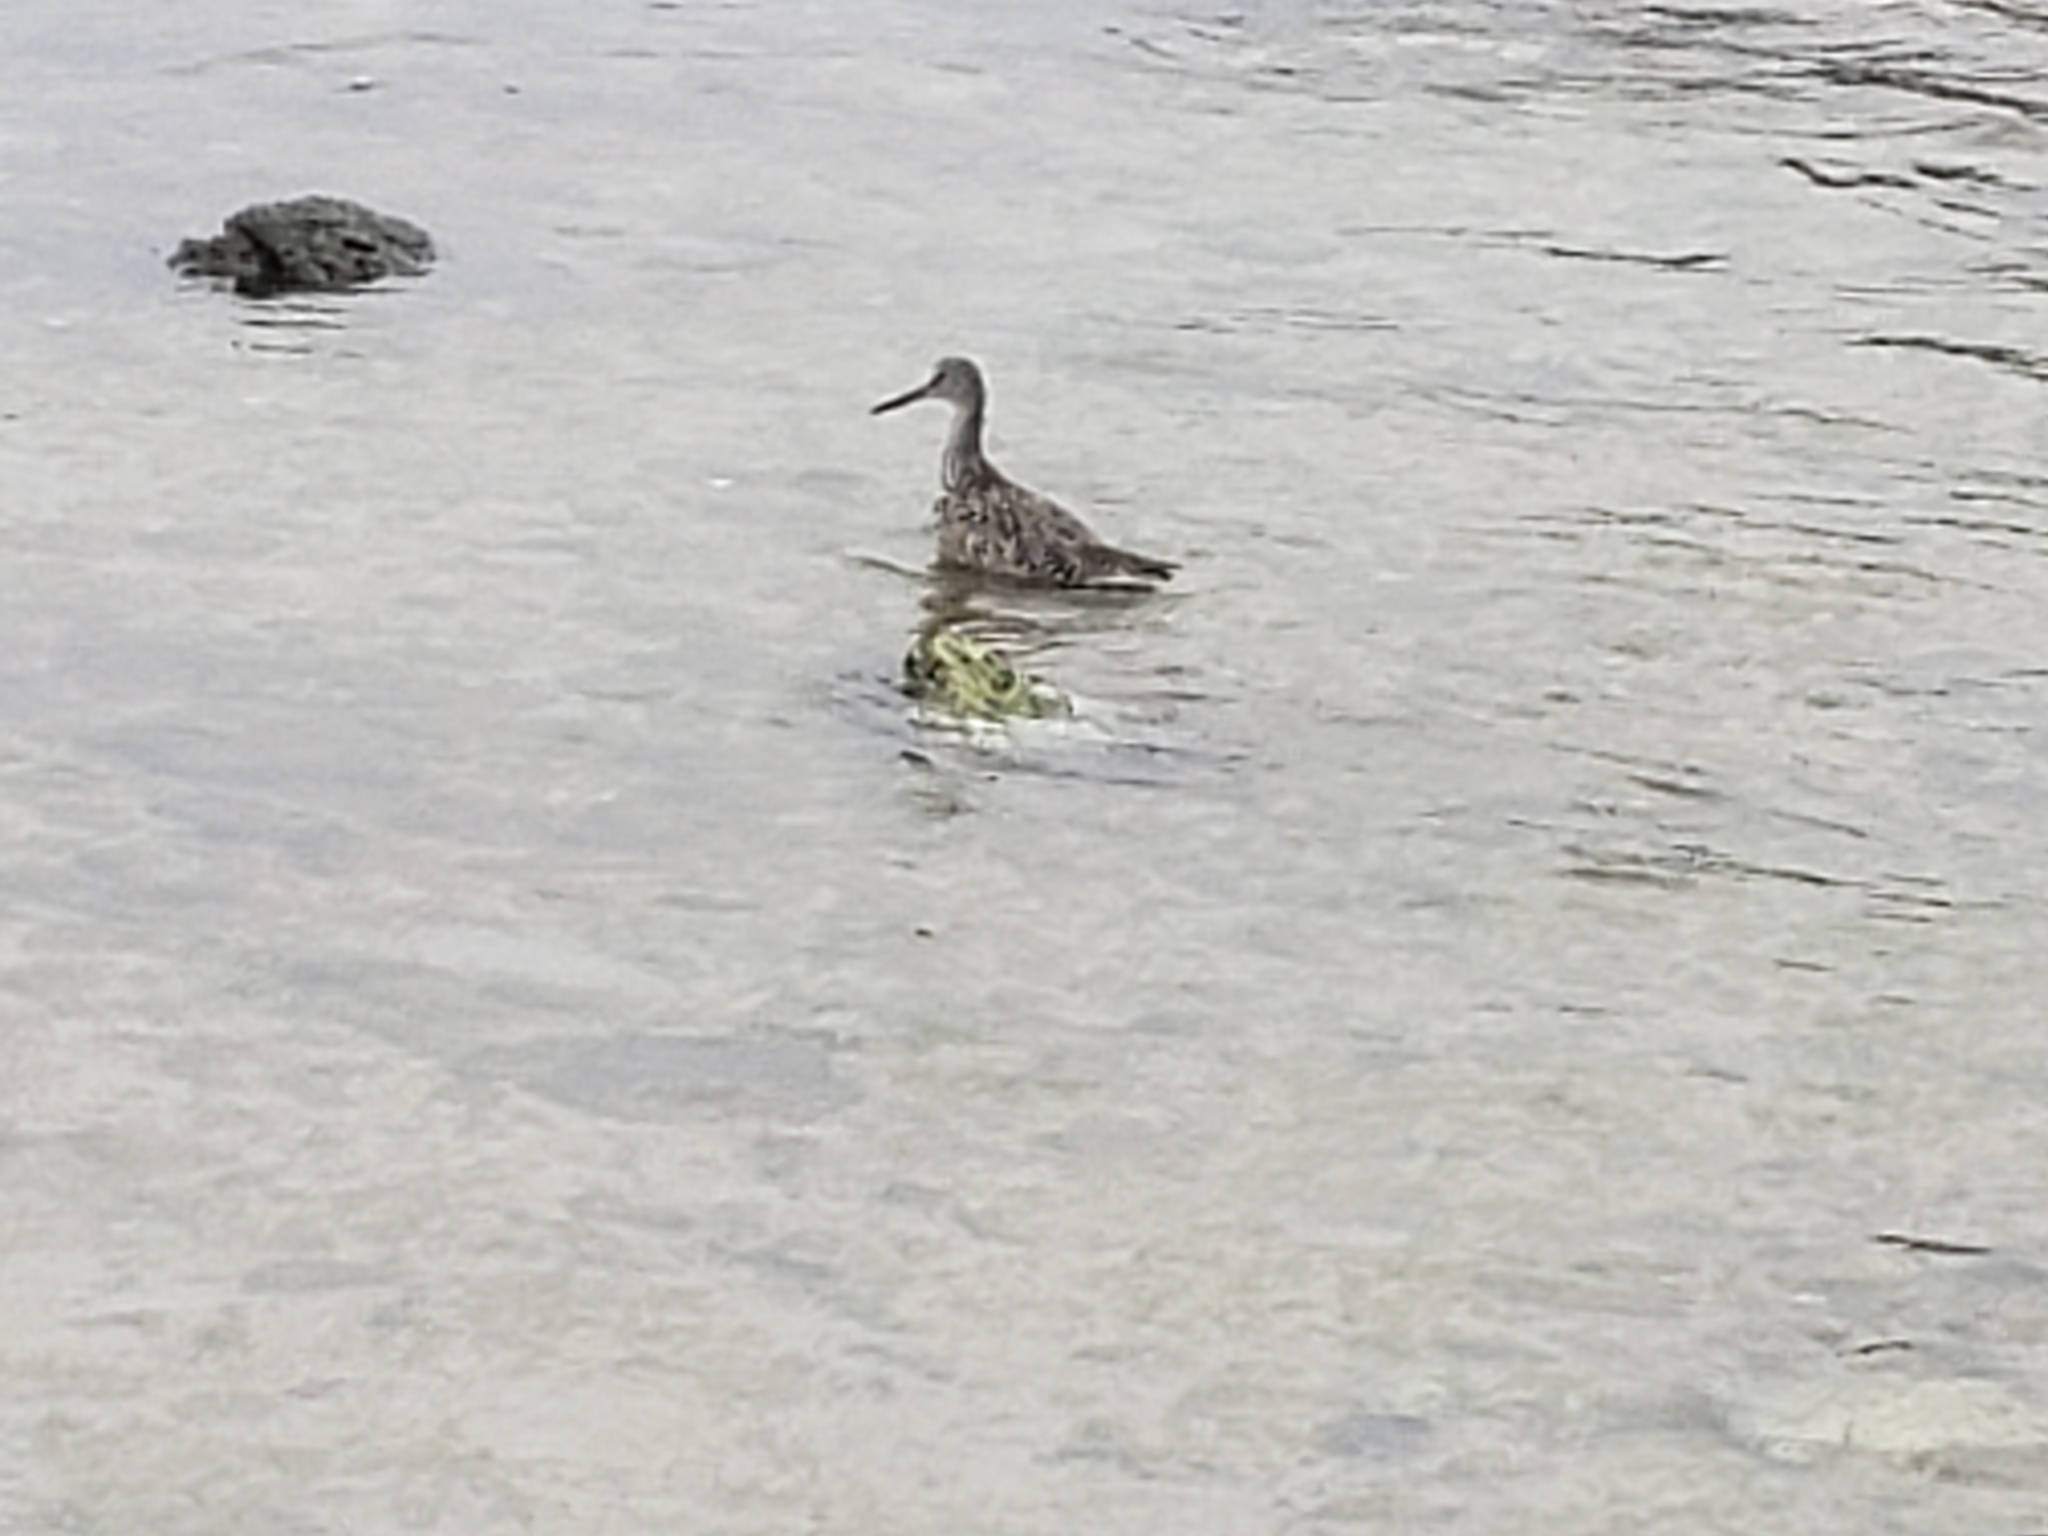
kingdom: Animalia
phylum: Chordata
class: Aves
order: Charadriiformes
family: Scolopacidae
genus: Tringa
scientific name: Tringa semipalmata
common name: Willet
